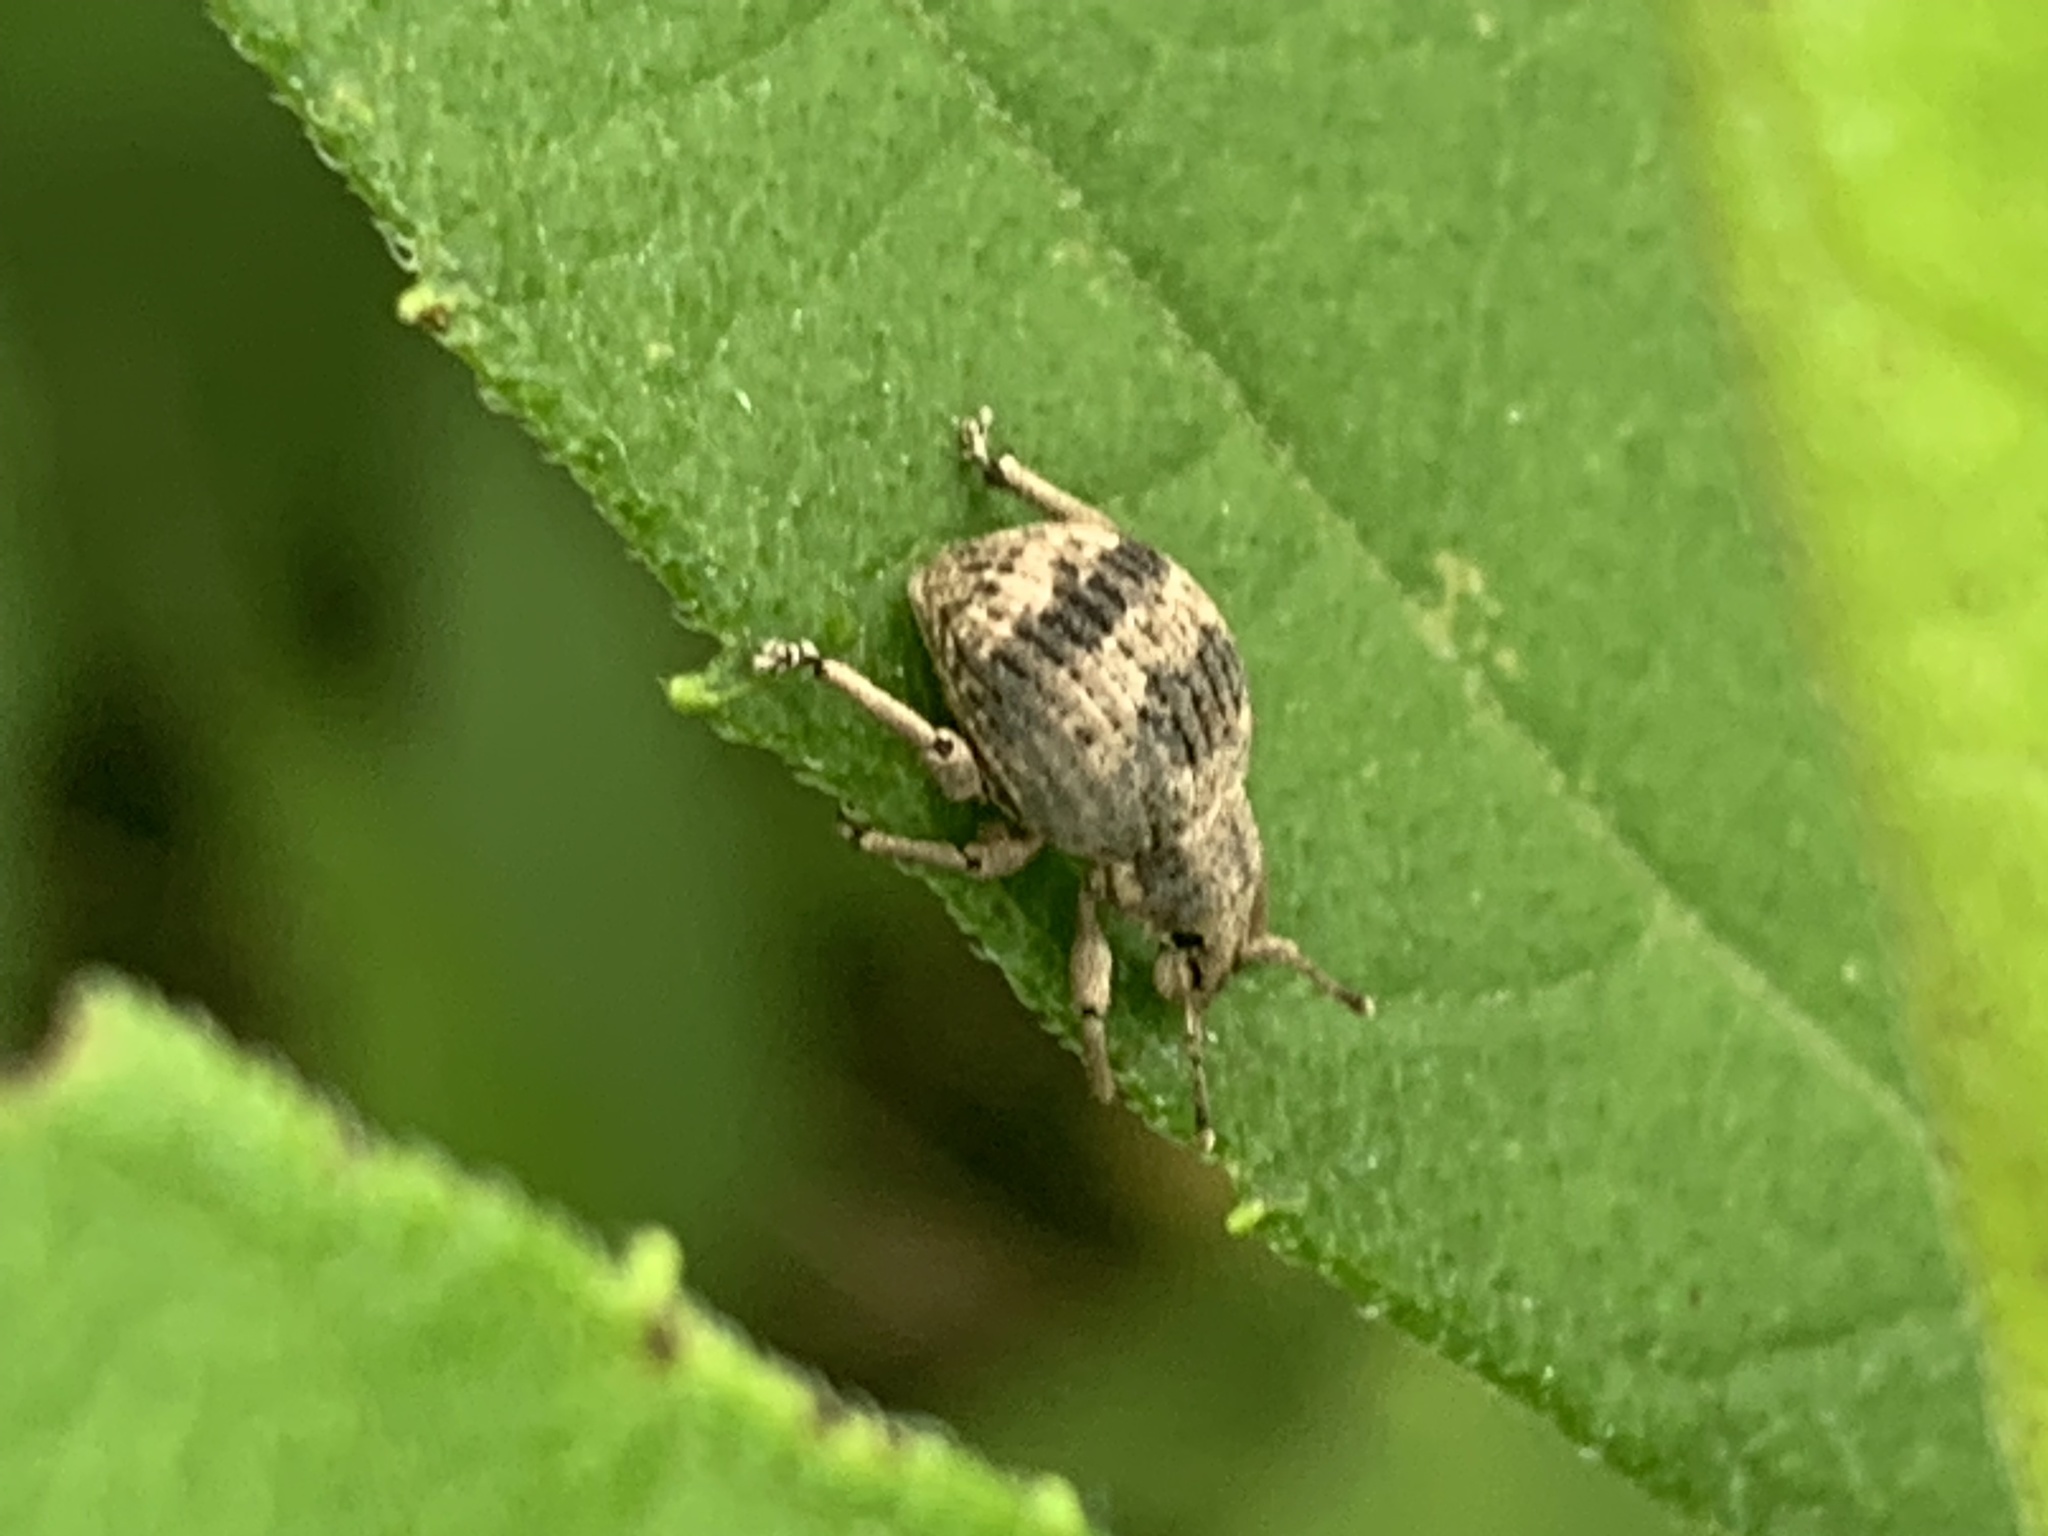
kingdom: Animalia
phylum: Arthropoda
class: Insecta
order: Coleoptera
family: Curculionidae
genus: Pseudocneorhinus
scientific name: Pseudocneorhinus bifasciatus
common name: Two-banded japanese weevil
